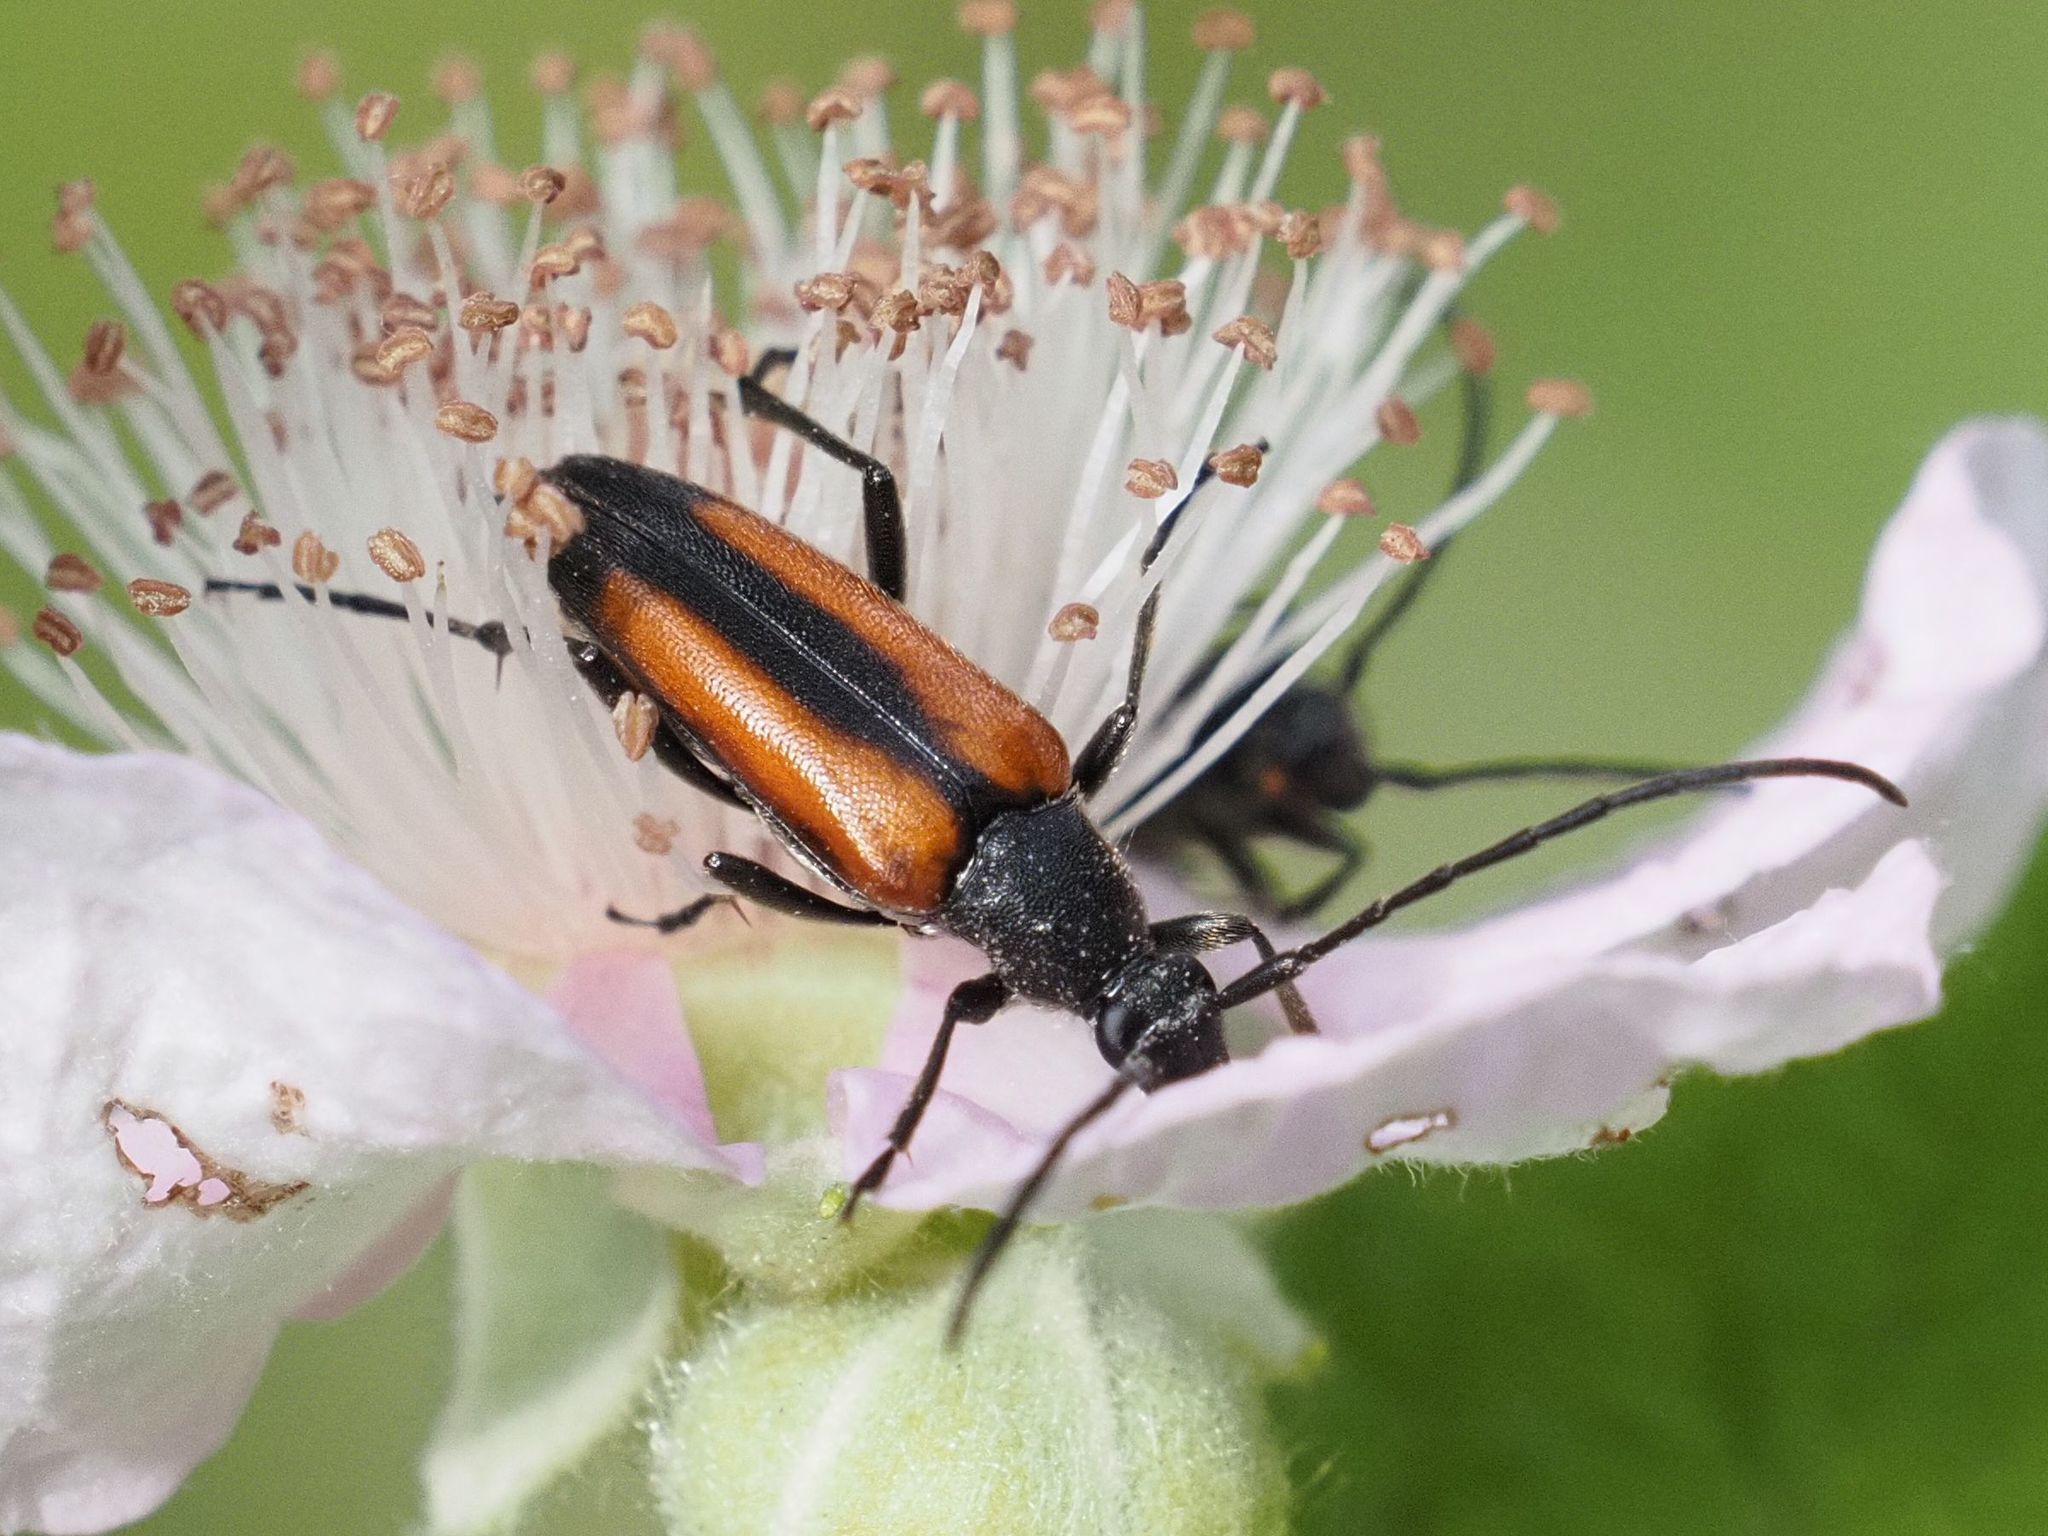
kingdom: Animalia
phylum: Arthropoda
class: Insecta
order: Coleoptera
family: Cerambycidae
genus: Stenurella
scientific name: Stenurella melanura
